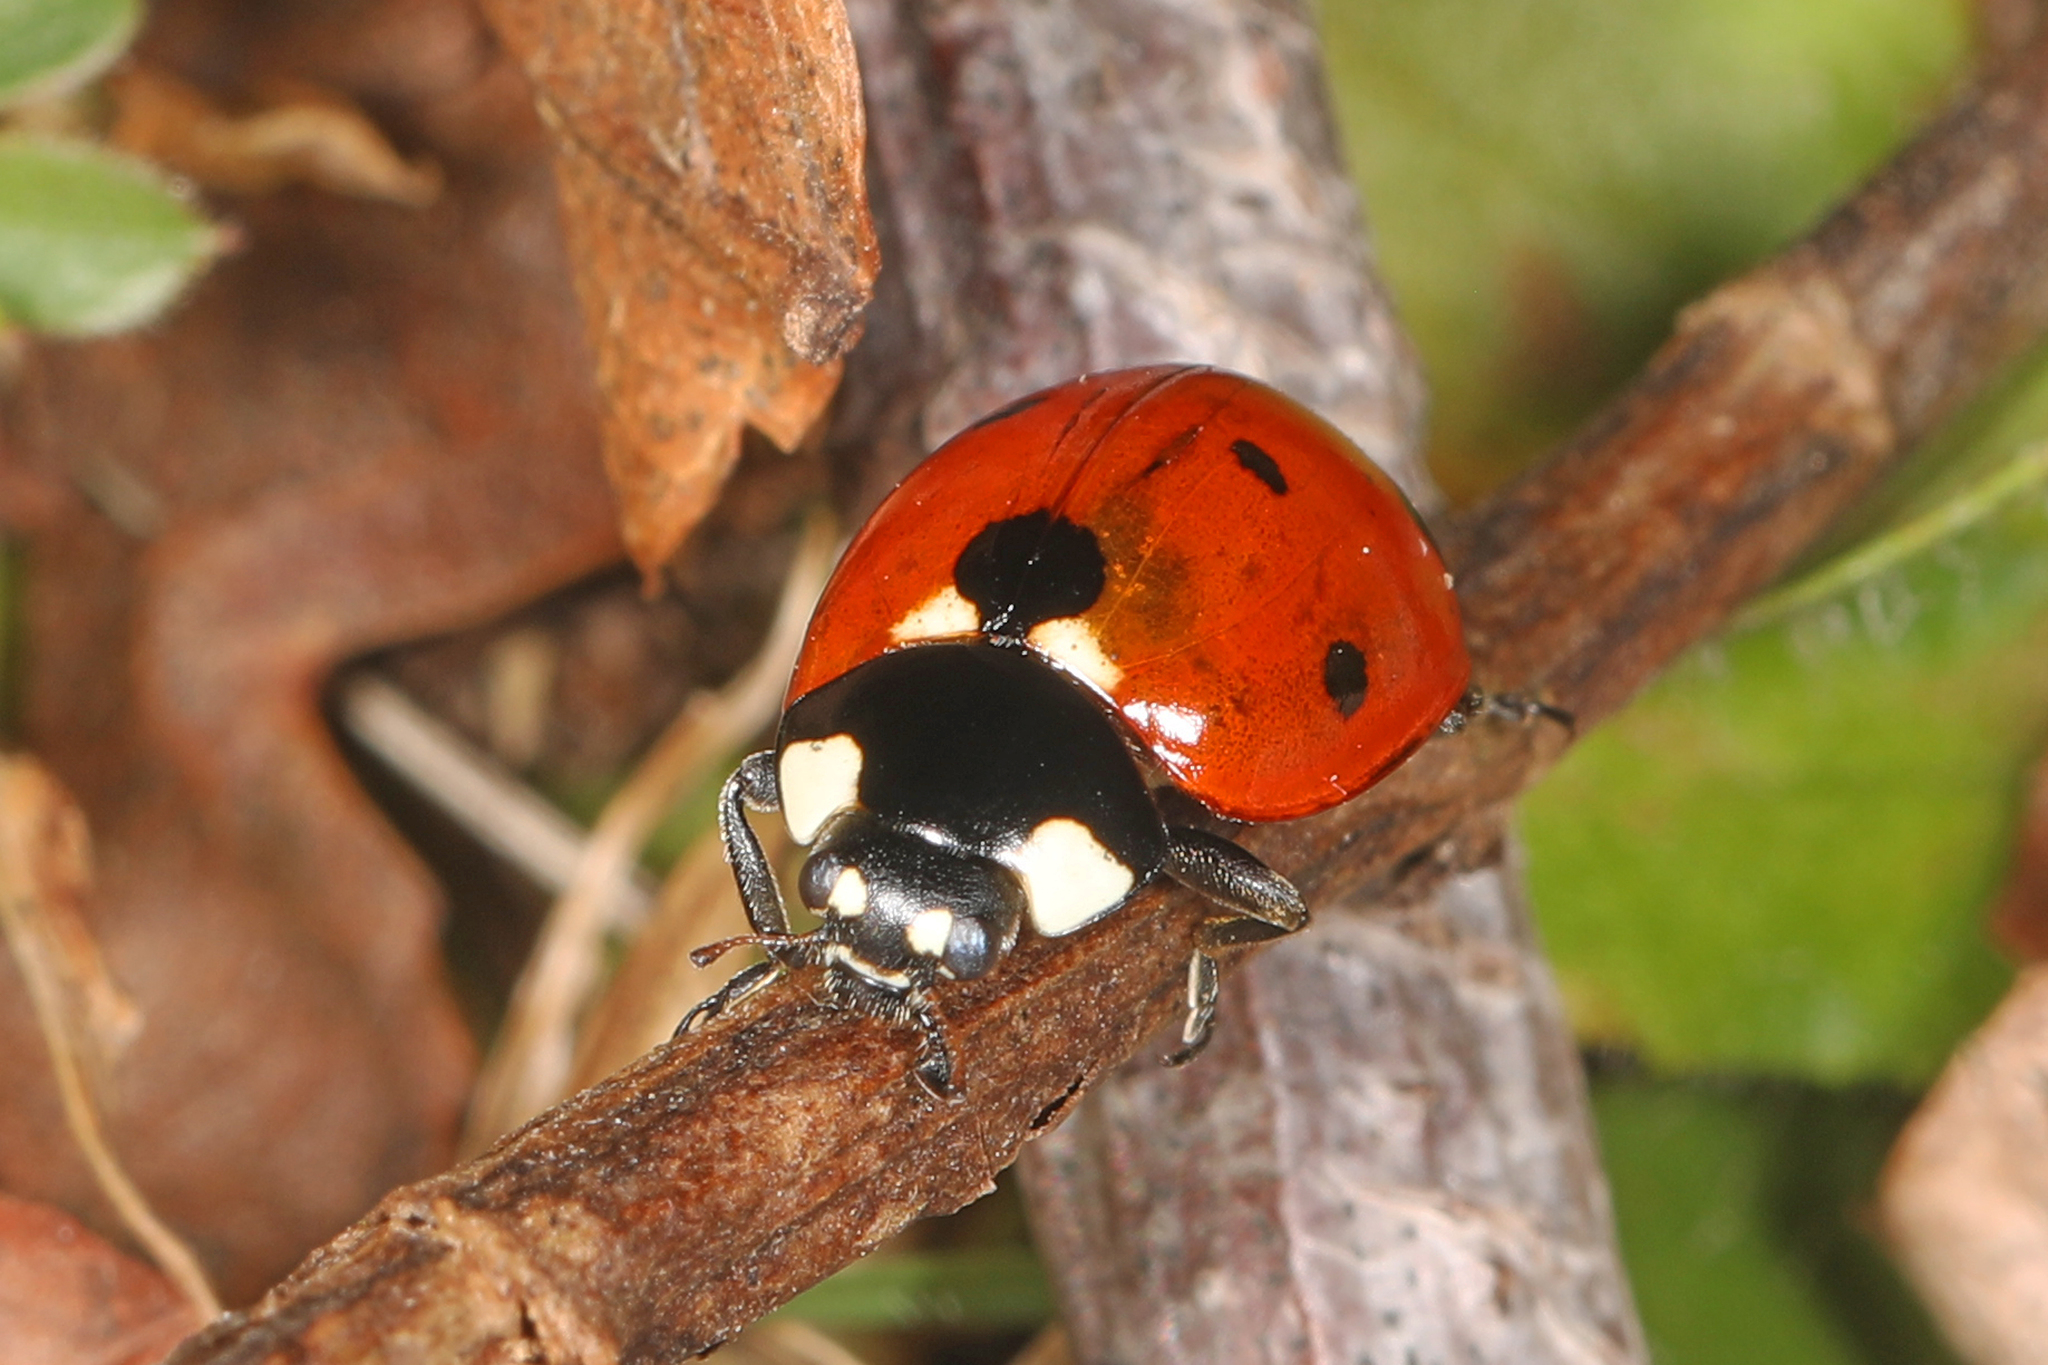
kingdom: Animalia
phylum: Arthropoda
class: Insecta
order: Coleoptera
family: Coccinellidae
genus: Coccinella
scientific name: Coccinella septempunctata
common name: Sevenspotted lady beetle
